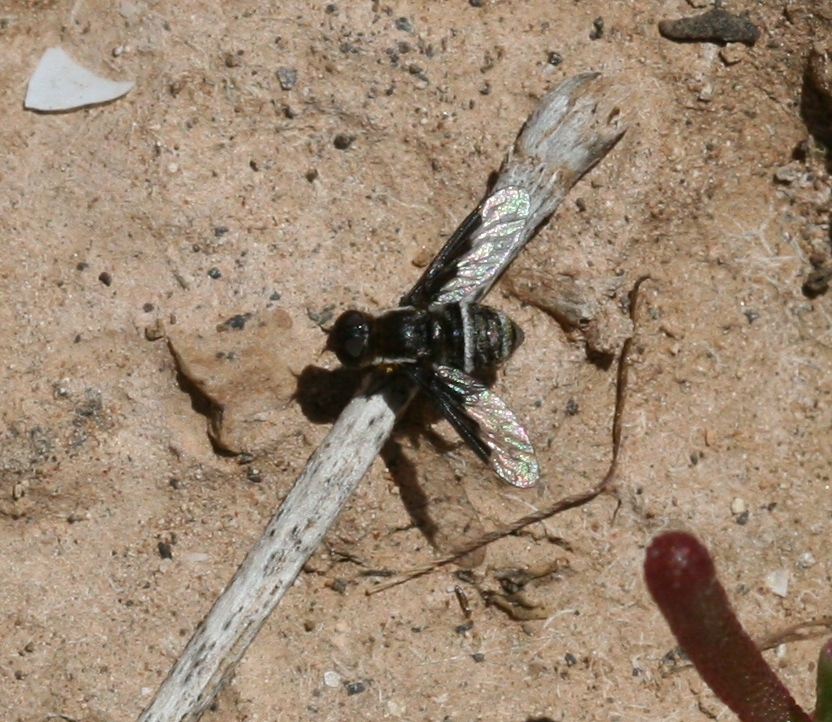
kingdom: Animalia
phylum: Arthropoda
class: Insecta
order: Diptera
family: Bombyliidae
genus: Exhyalanthrax
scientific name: Exhyalanthrax simonae
